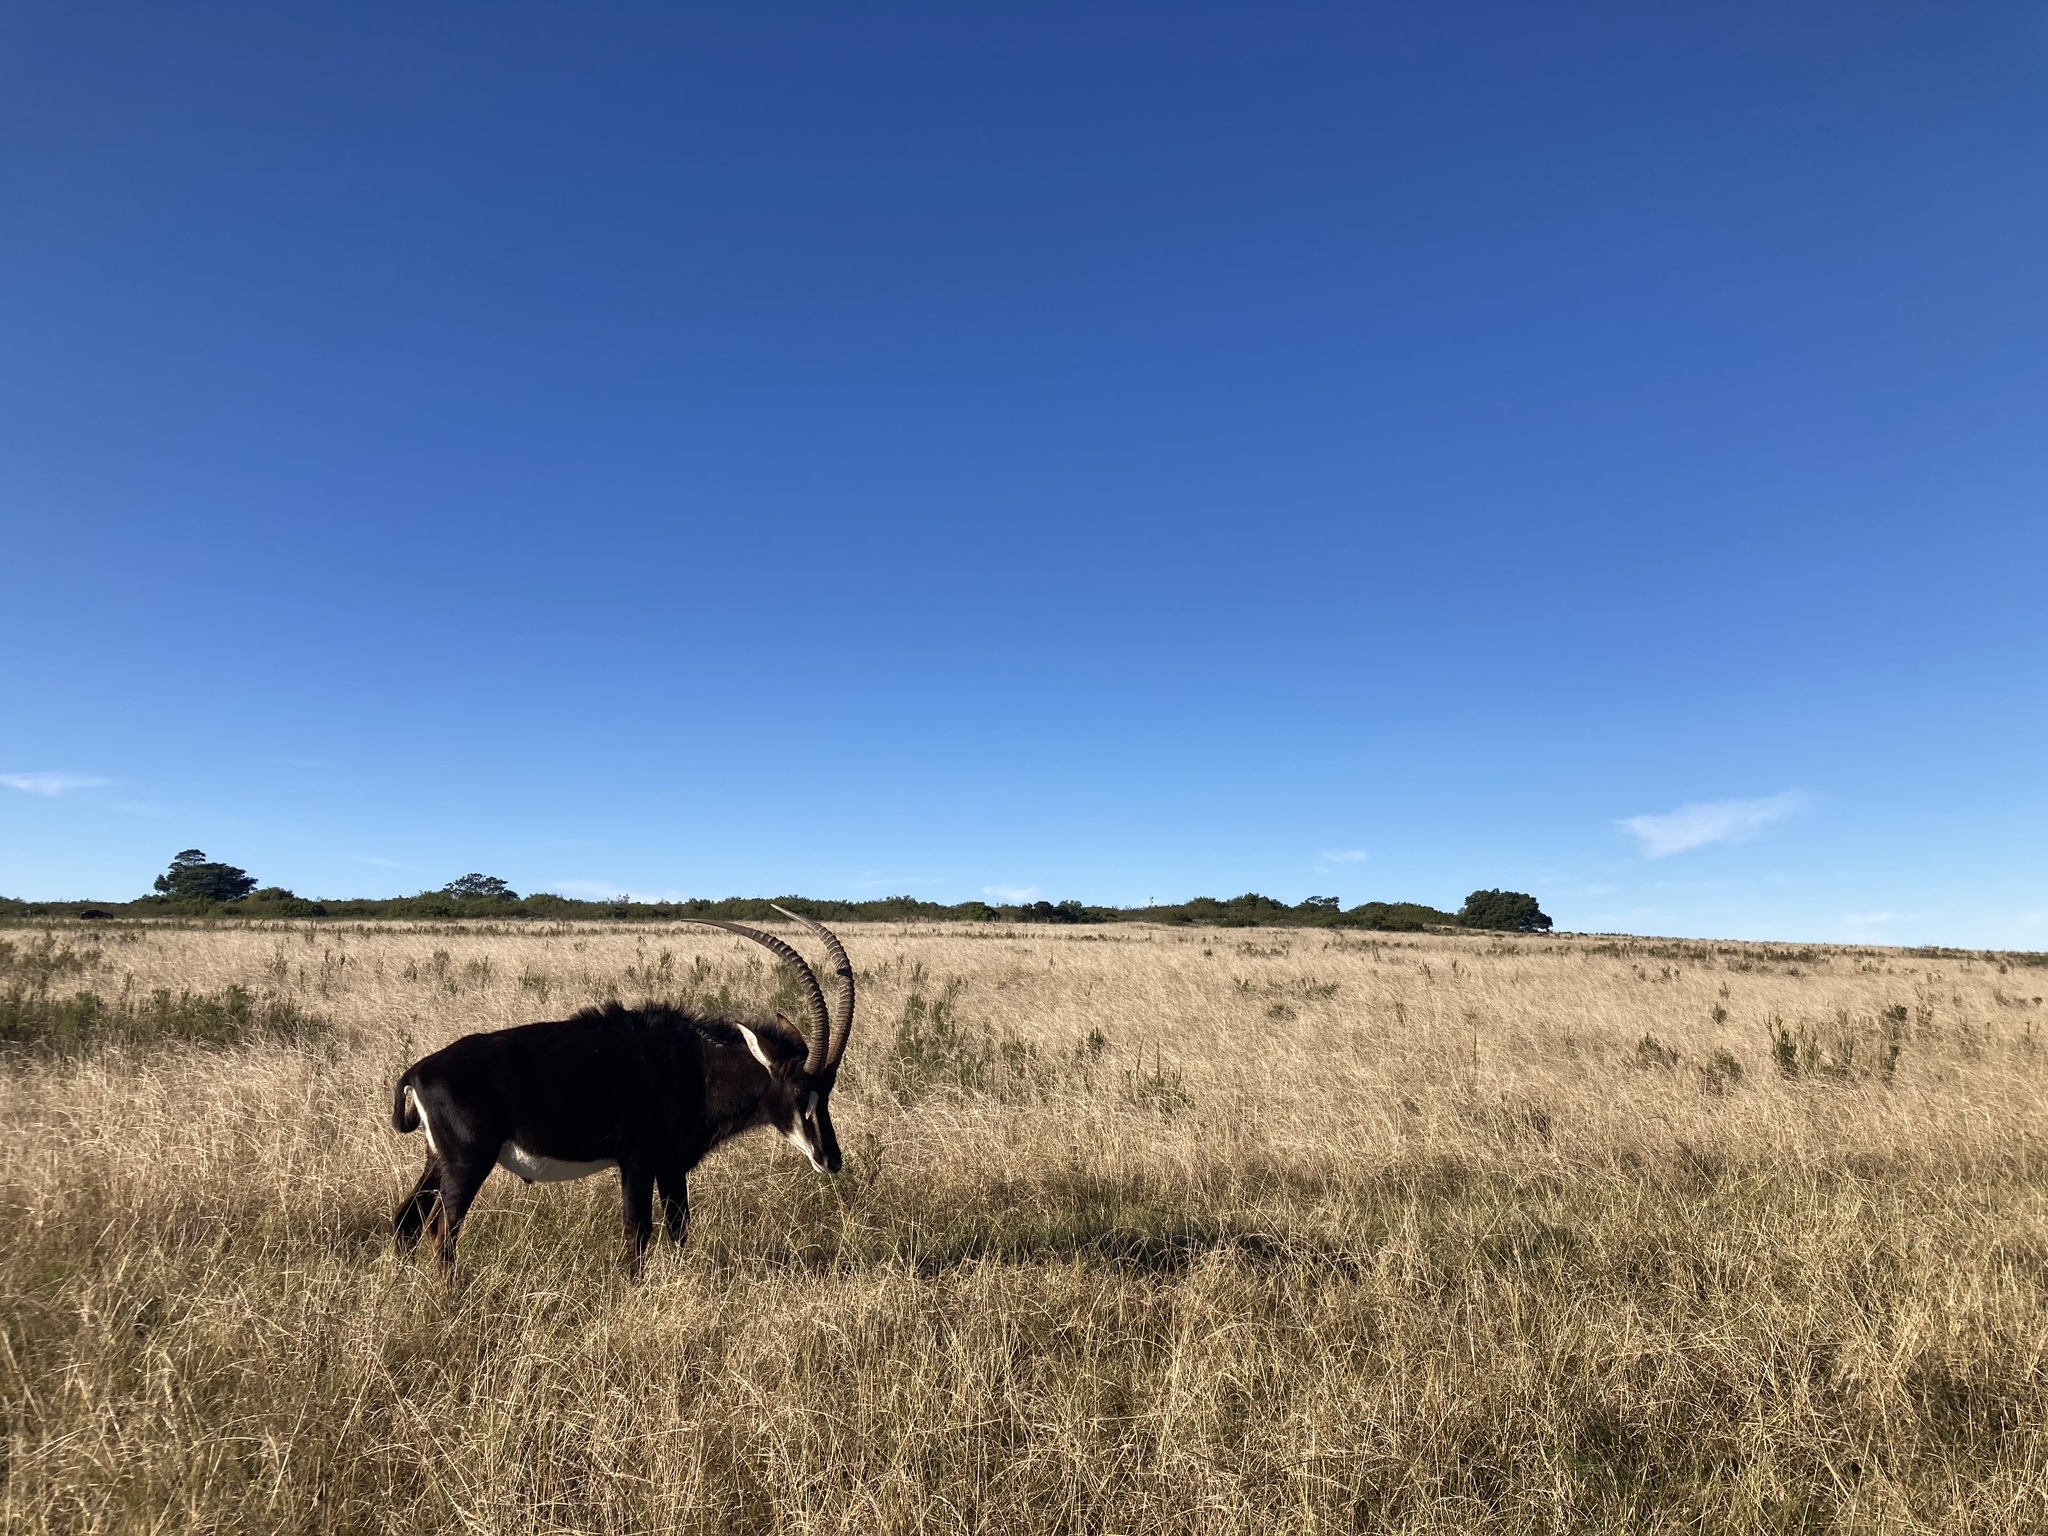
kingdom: Animalia
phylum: Chordata
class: Mammalia
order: Artiodactyla
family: Bovidae
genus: Hippotragus
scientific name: Hippotragus niger
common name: Sable antelope
